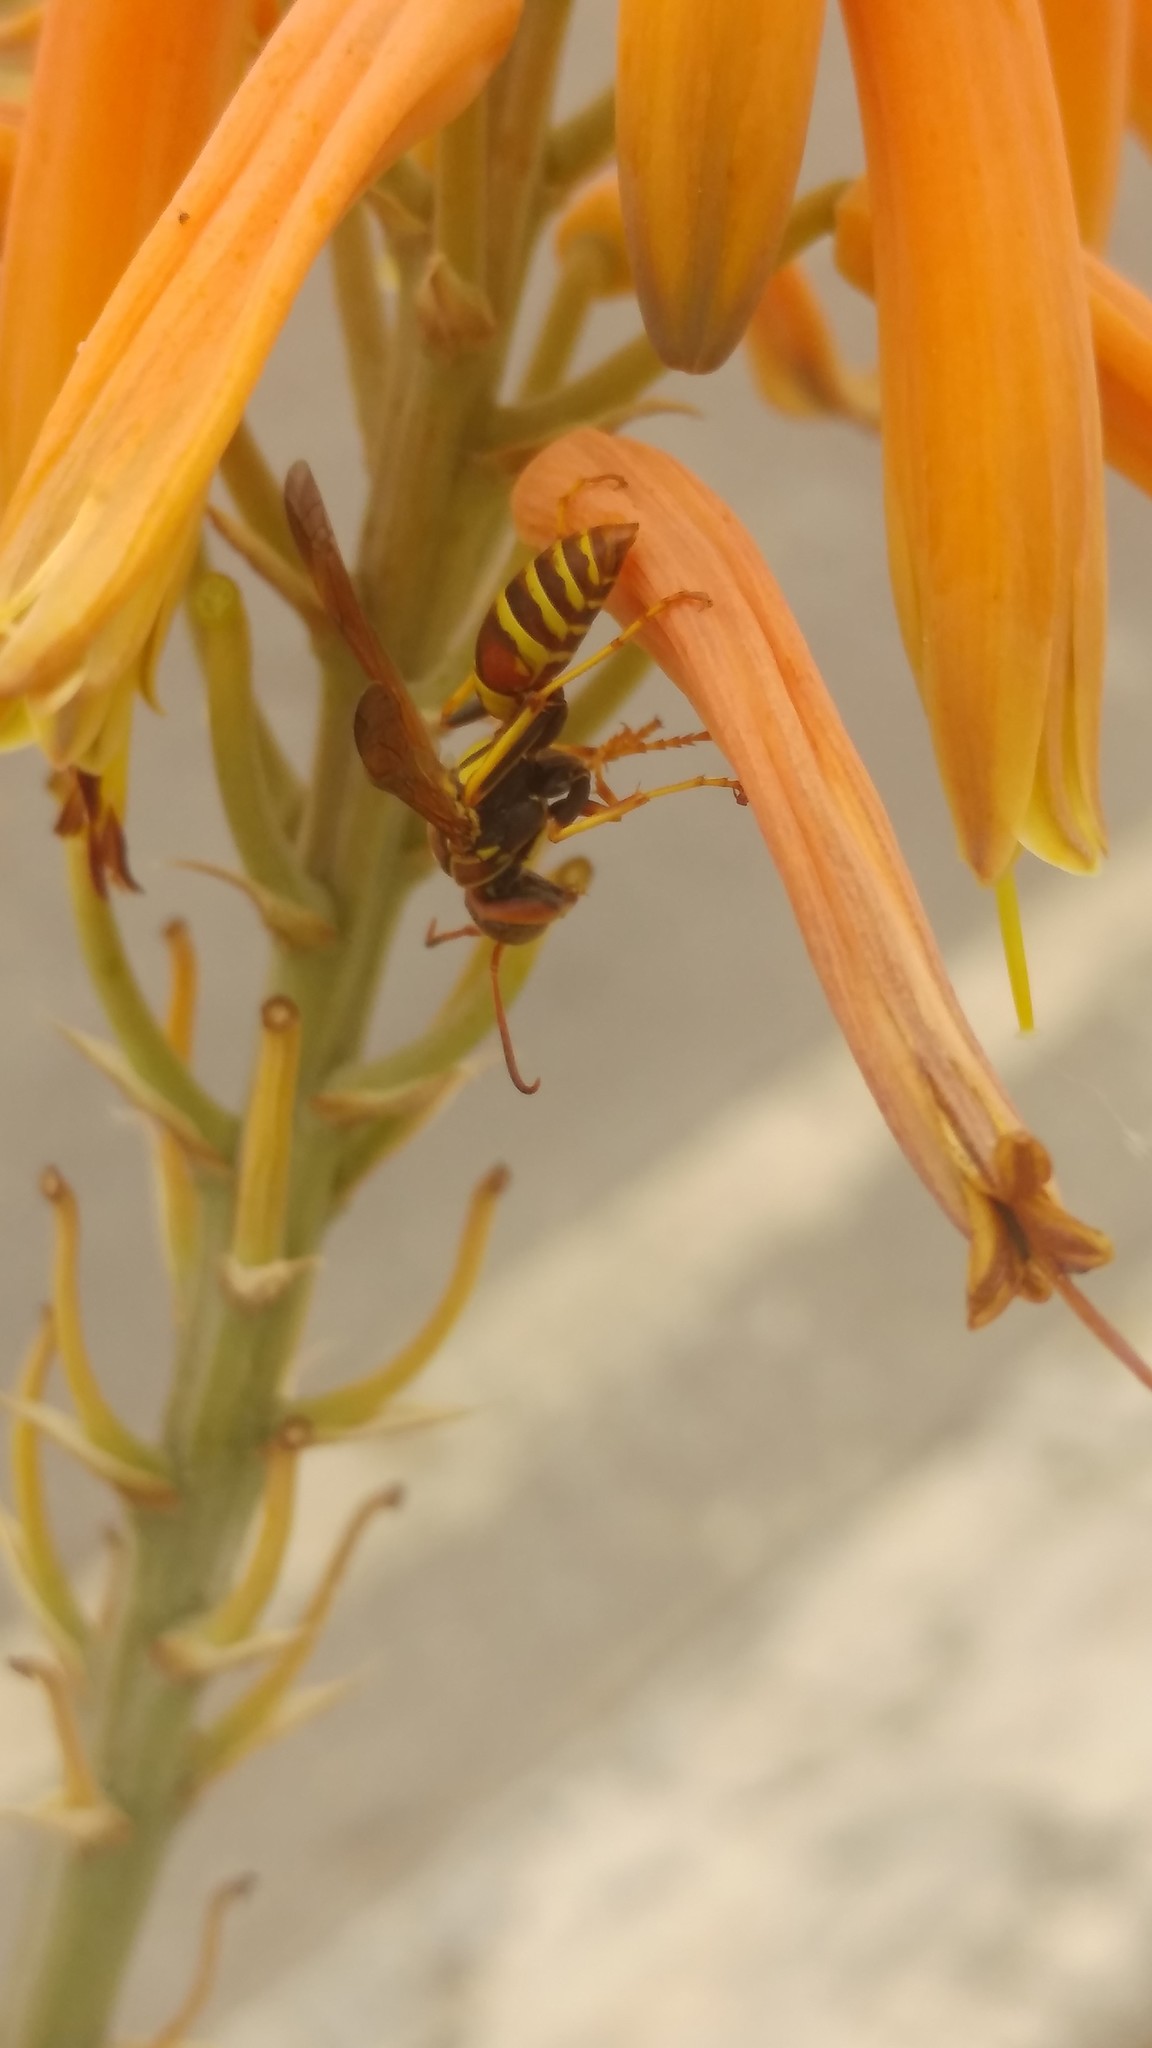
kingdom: Animalia
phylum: Arthropoda
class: Insecta
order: Hymenoptera
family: Eumenidae
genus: Polistes
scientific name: Polistes dorsalis
